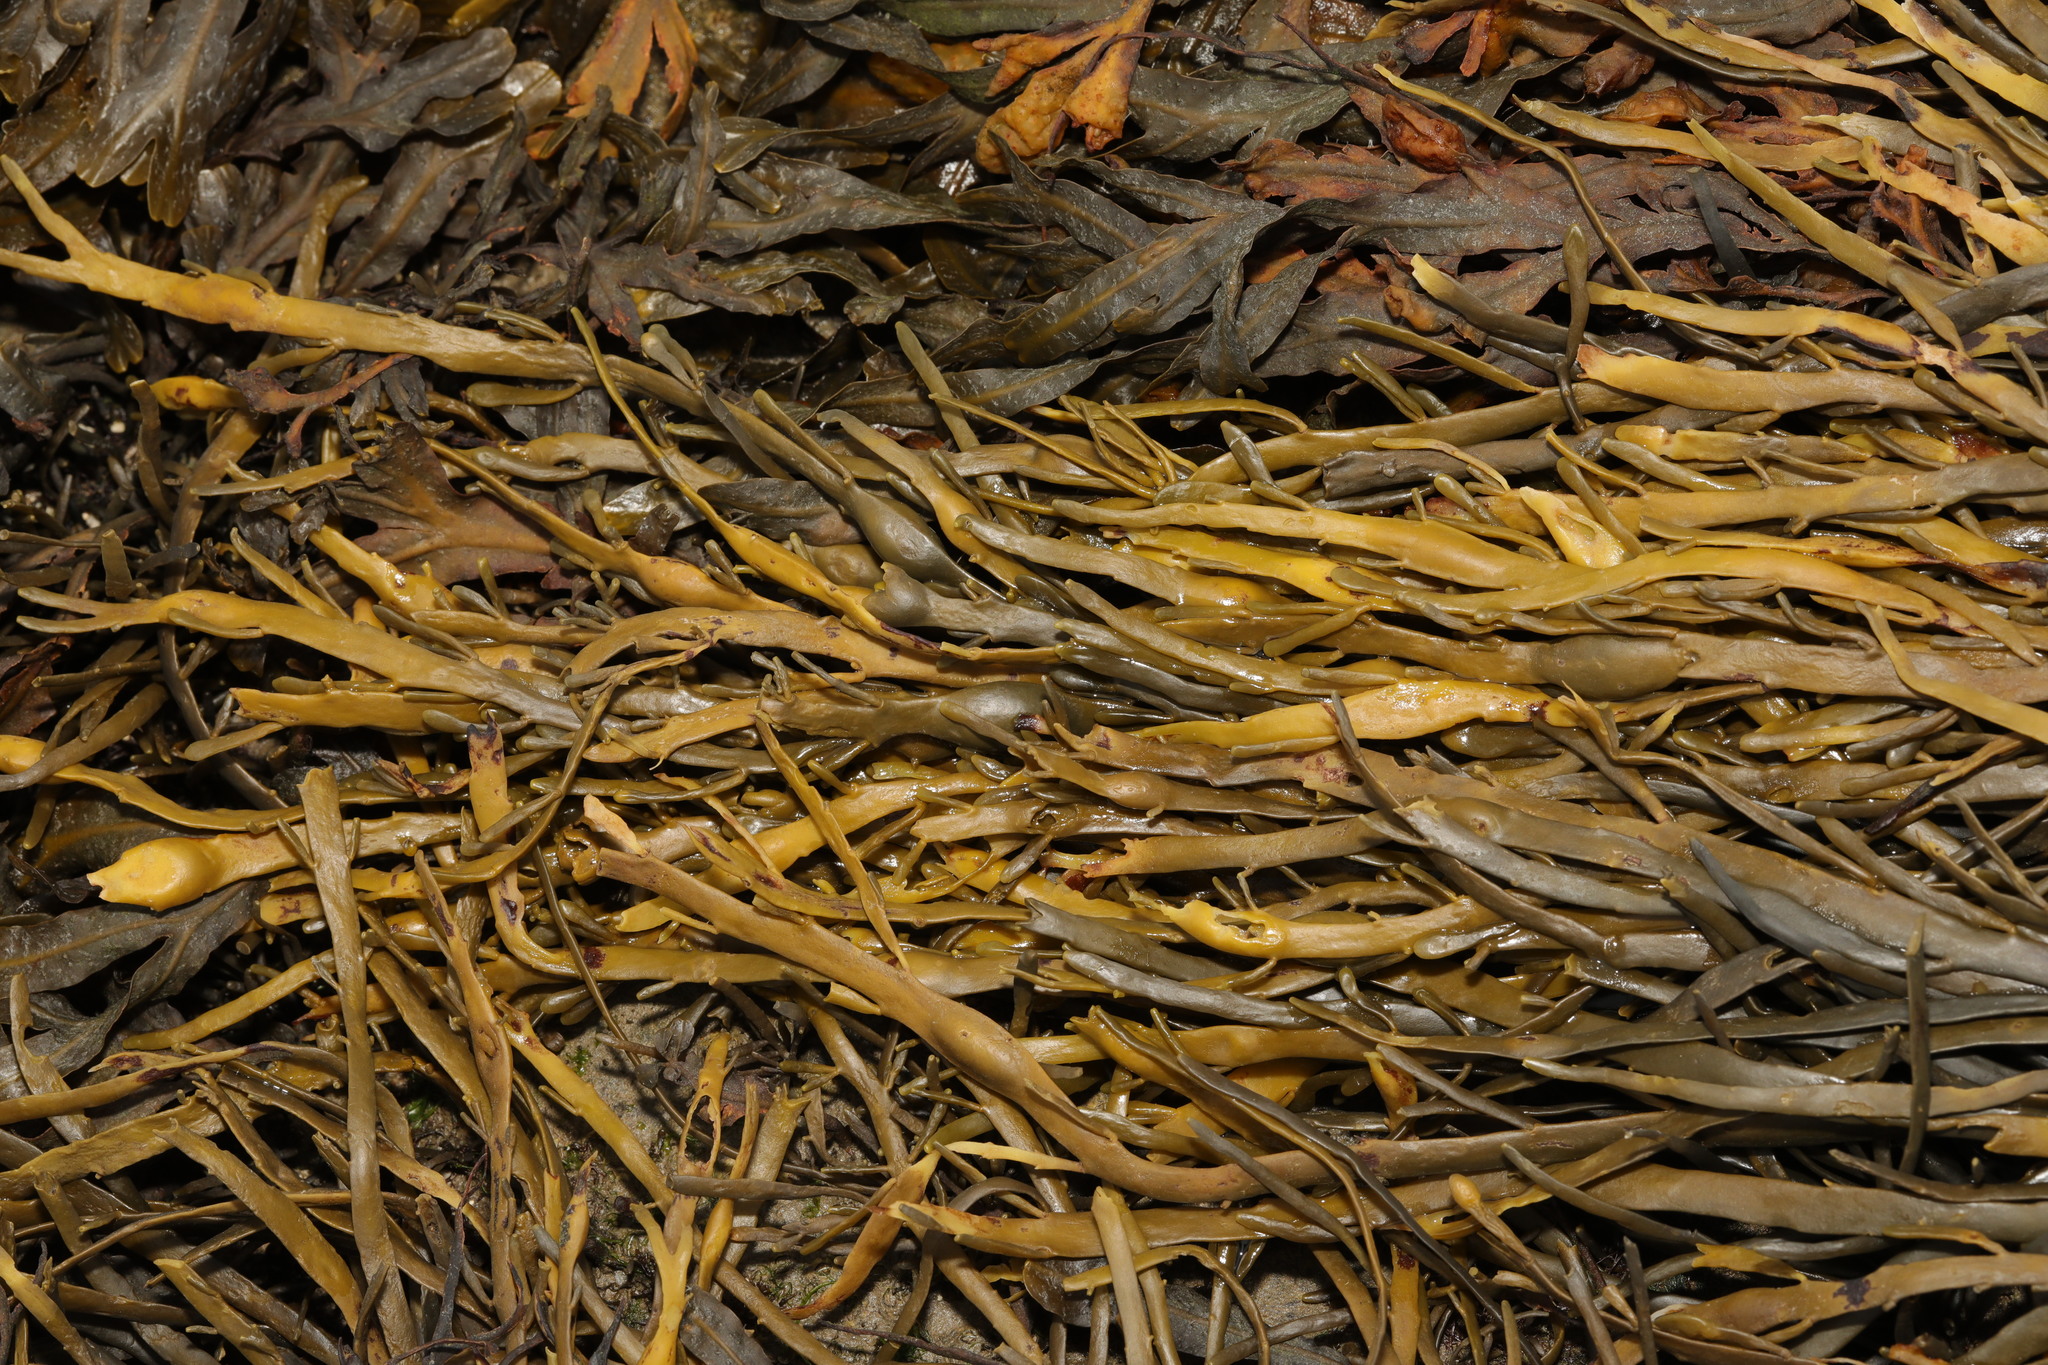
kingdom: Chromista
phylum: Ochrophyta
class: Phaeophyceae
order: Fucales
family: Fucaceae
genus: Ascophyllum
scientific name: Ascophyllum nodosum
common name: Knotted wrack
